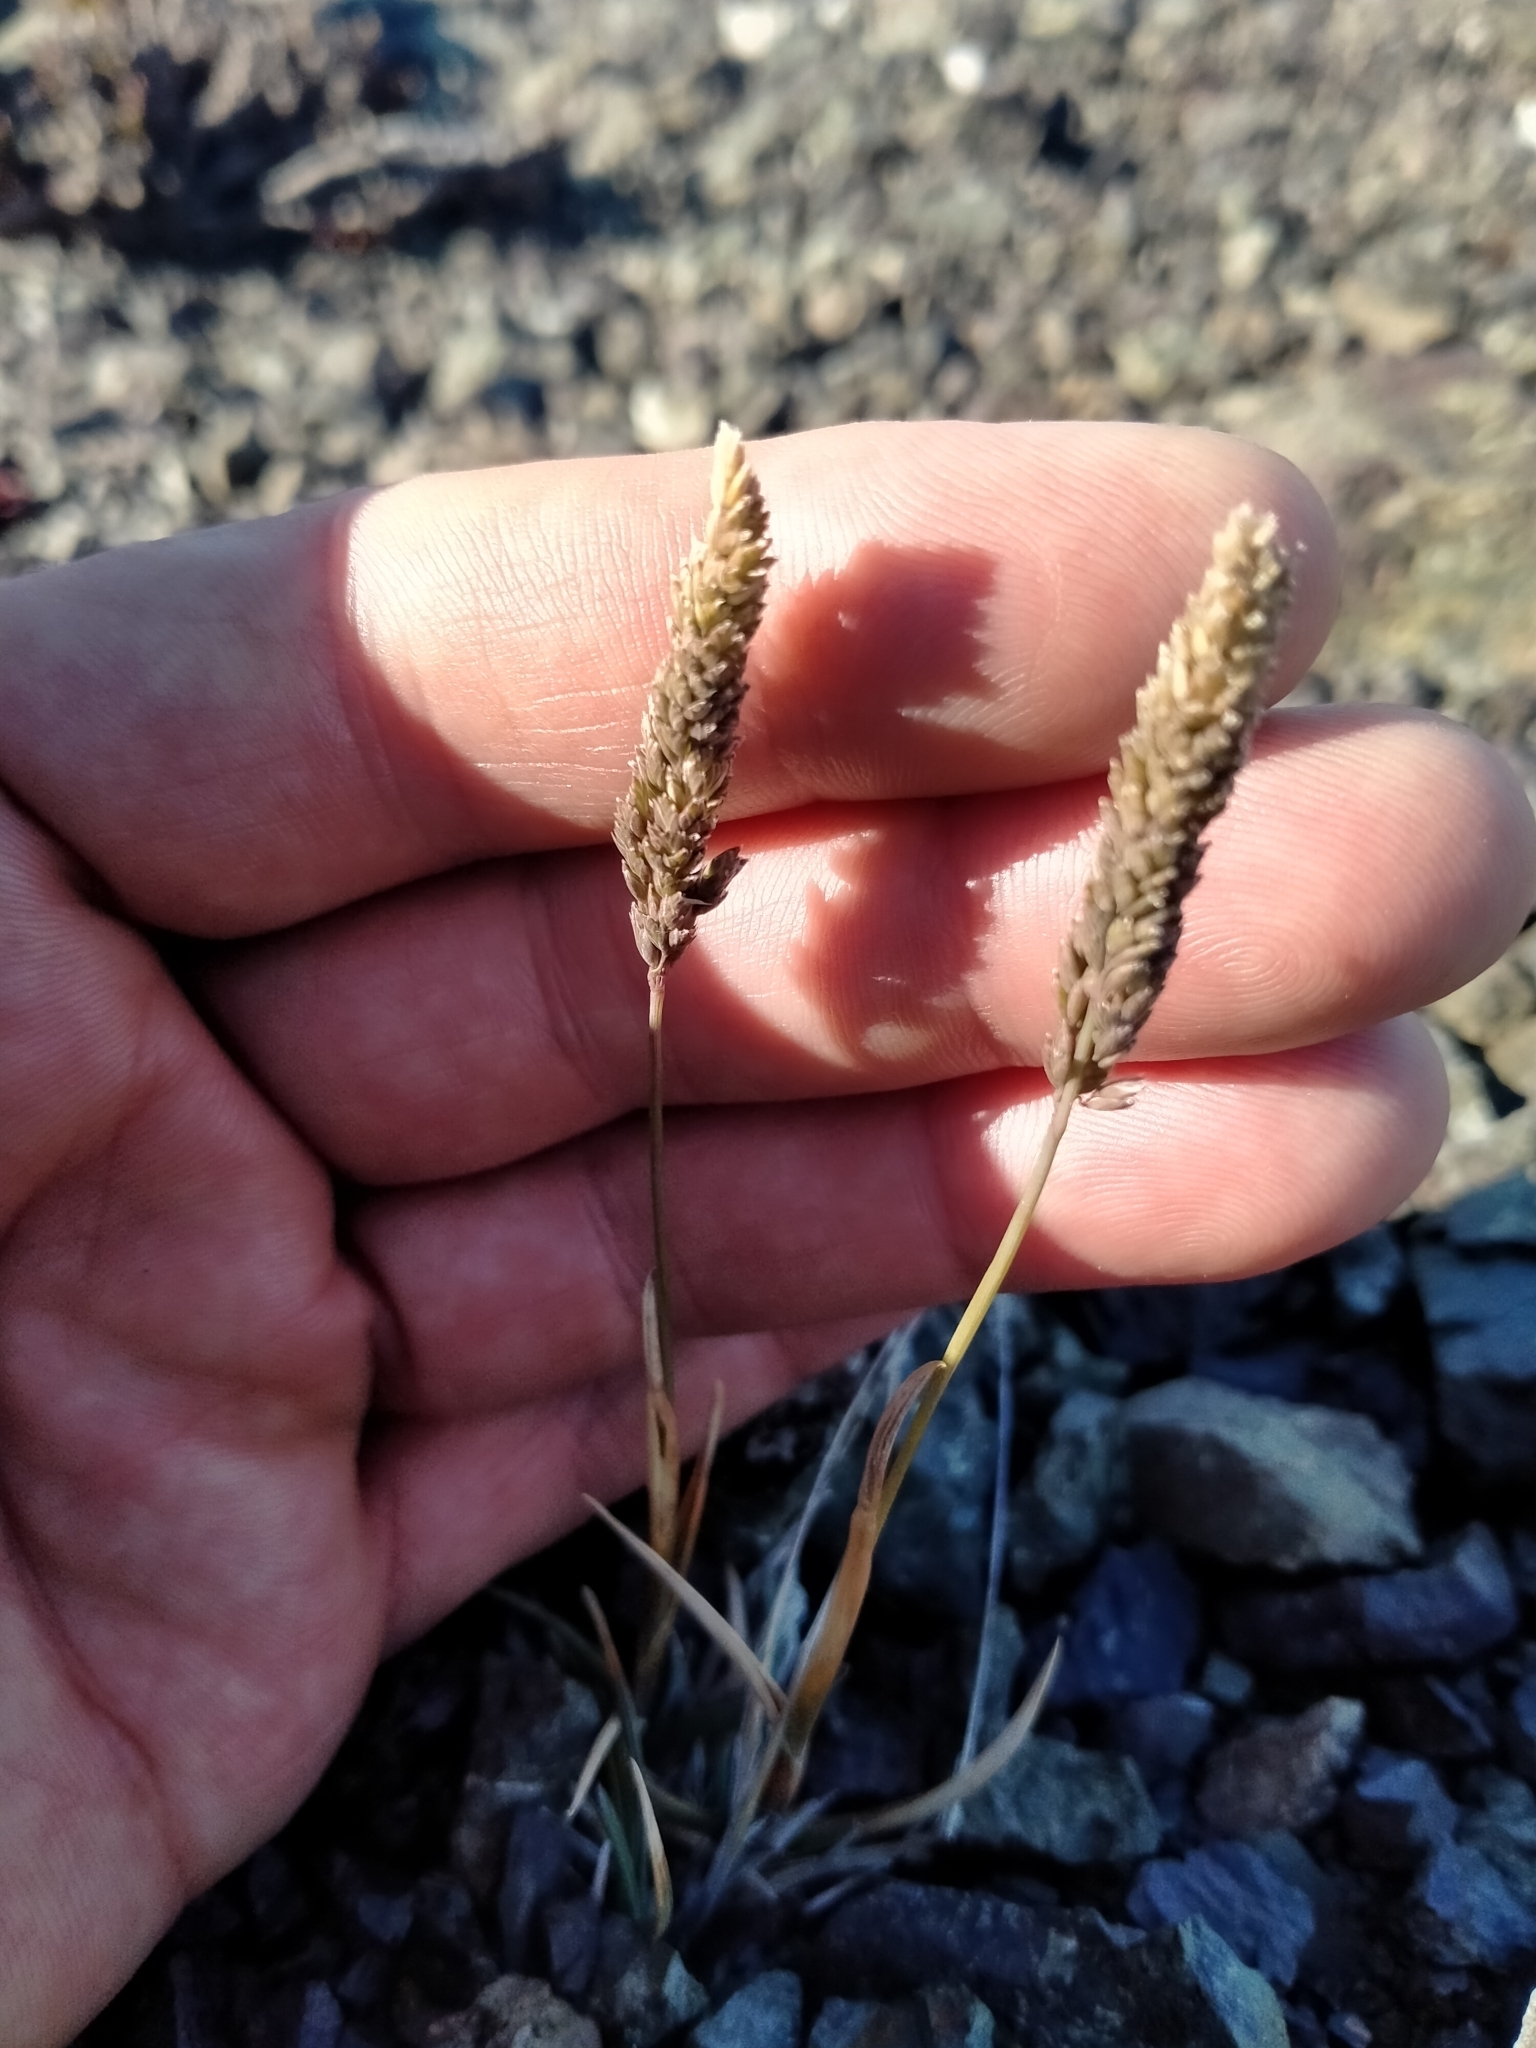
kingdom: Plantae
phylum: Tracheophyta
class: Liliopsida
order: Poales
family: Poaceae
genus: Poa
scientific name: Poa buchananii
